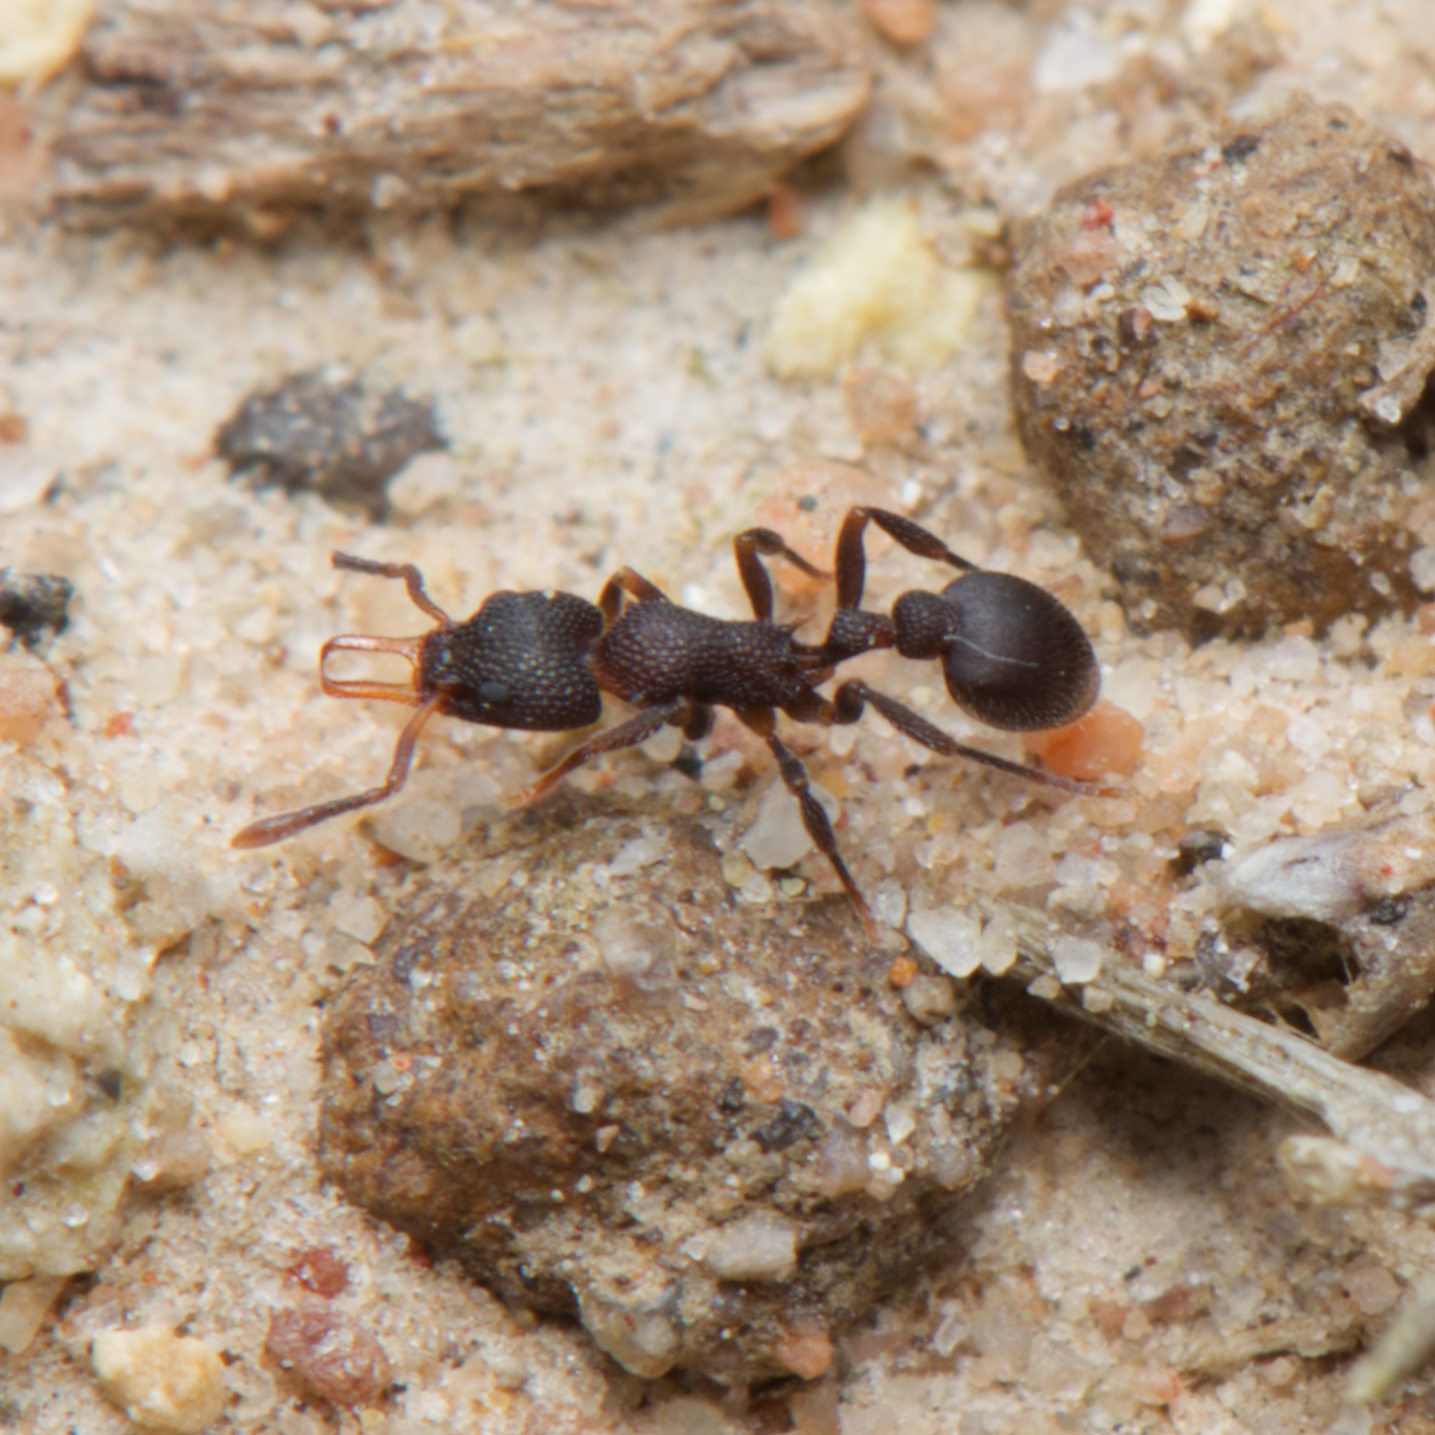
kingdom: Animalia
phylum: Arthropoda
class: Insecta
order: Hymenoptera
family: Formicidae
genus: Epopostruma
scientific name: Epopostruma quadrispinosa
